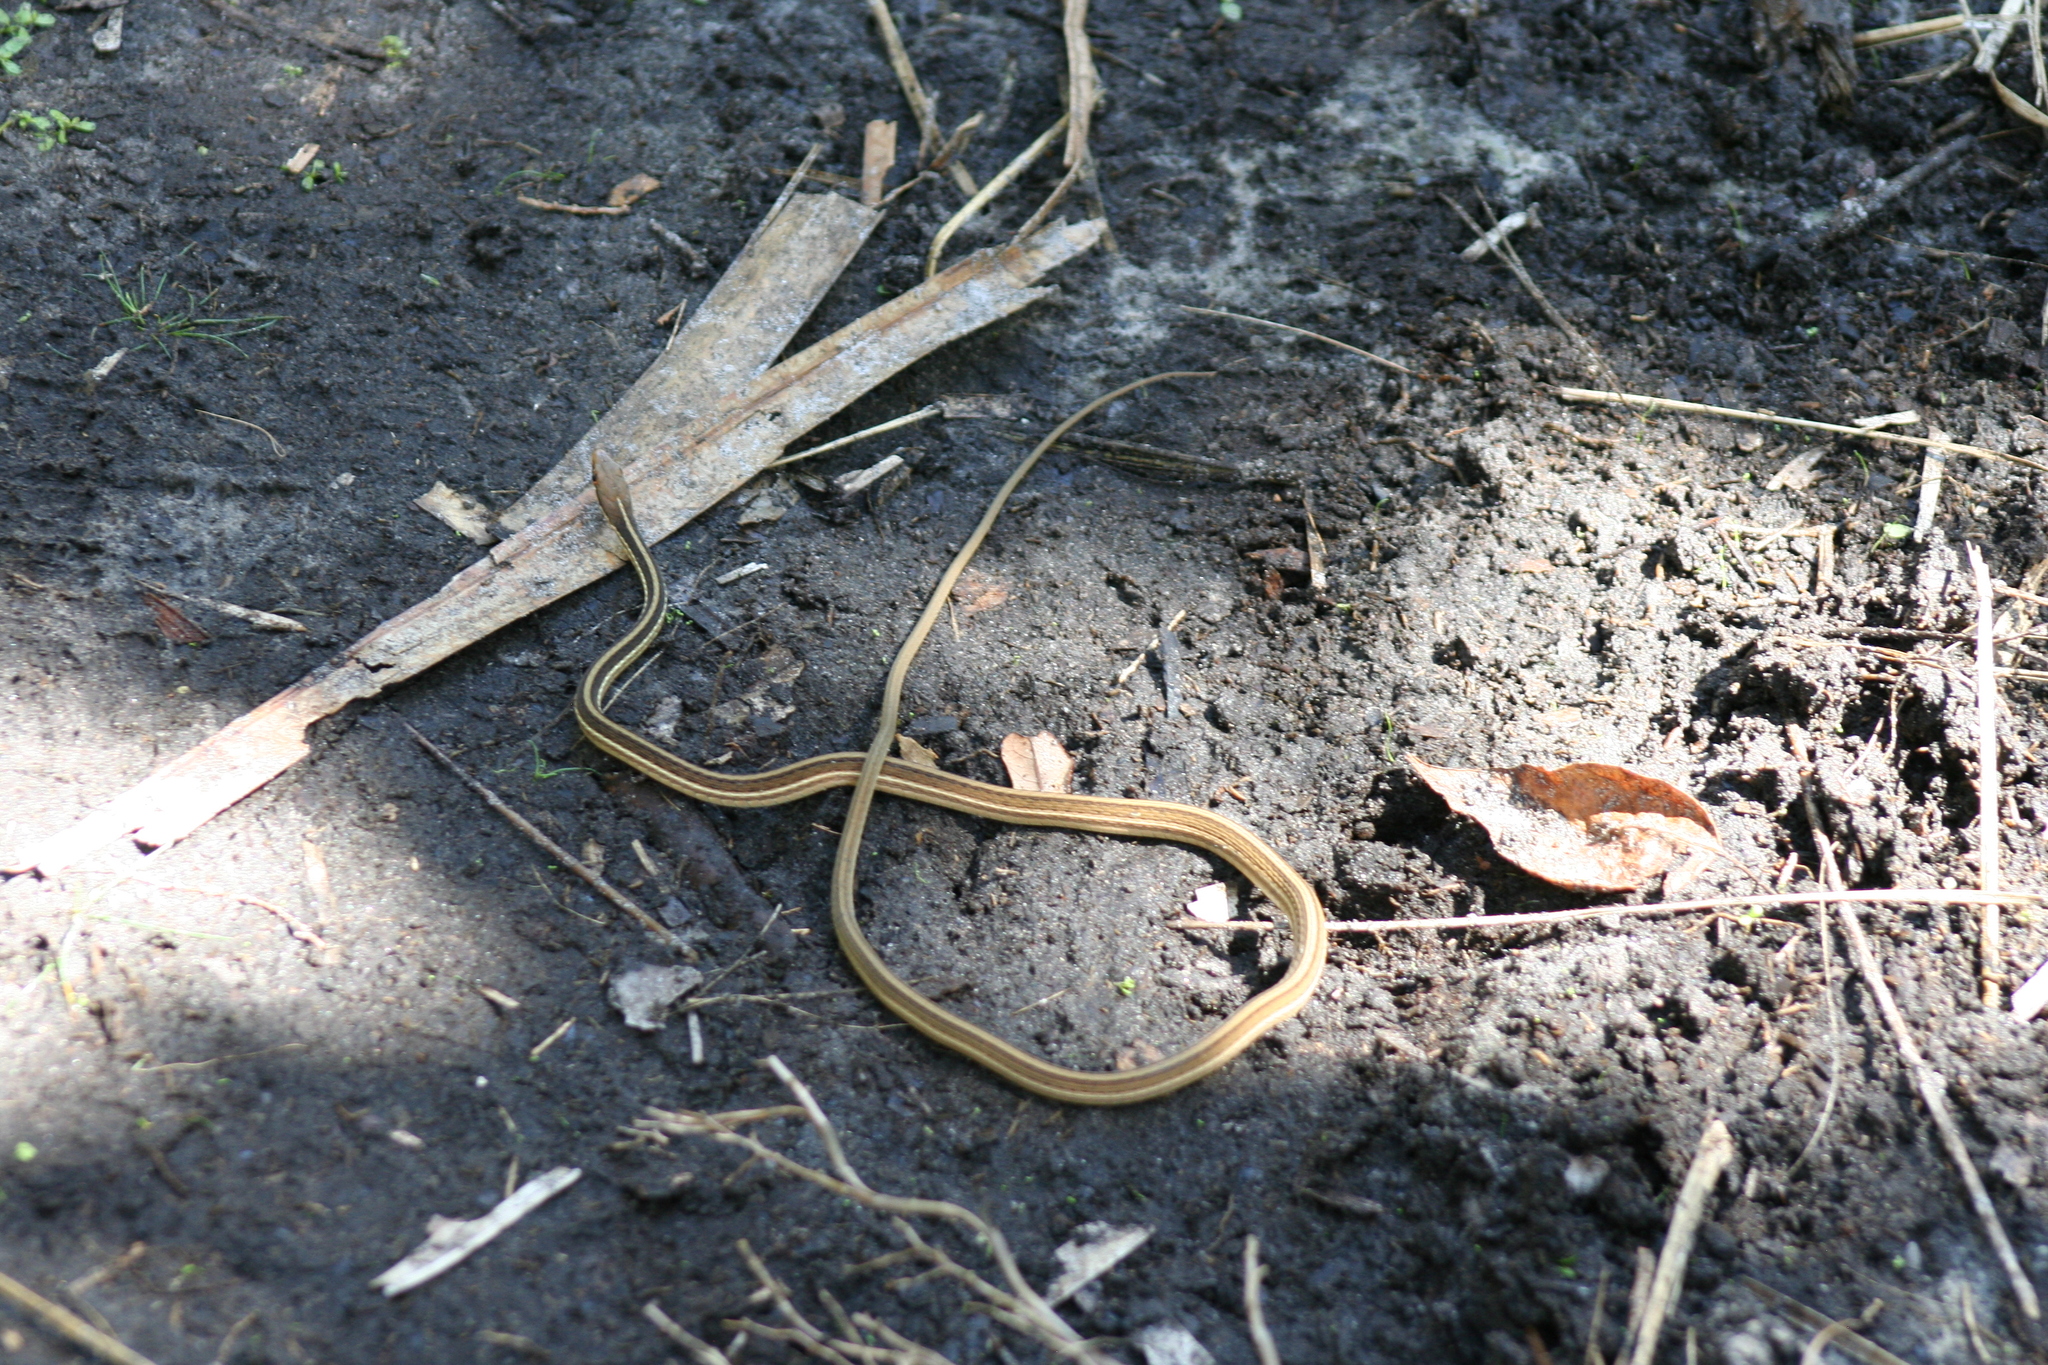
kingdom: Animalia
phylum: Chordata
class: Squamata
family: Colubridae
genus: Thamnophis
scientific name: Thamnophis saurita
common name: Eastern ribbonsnake
